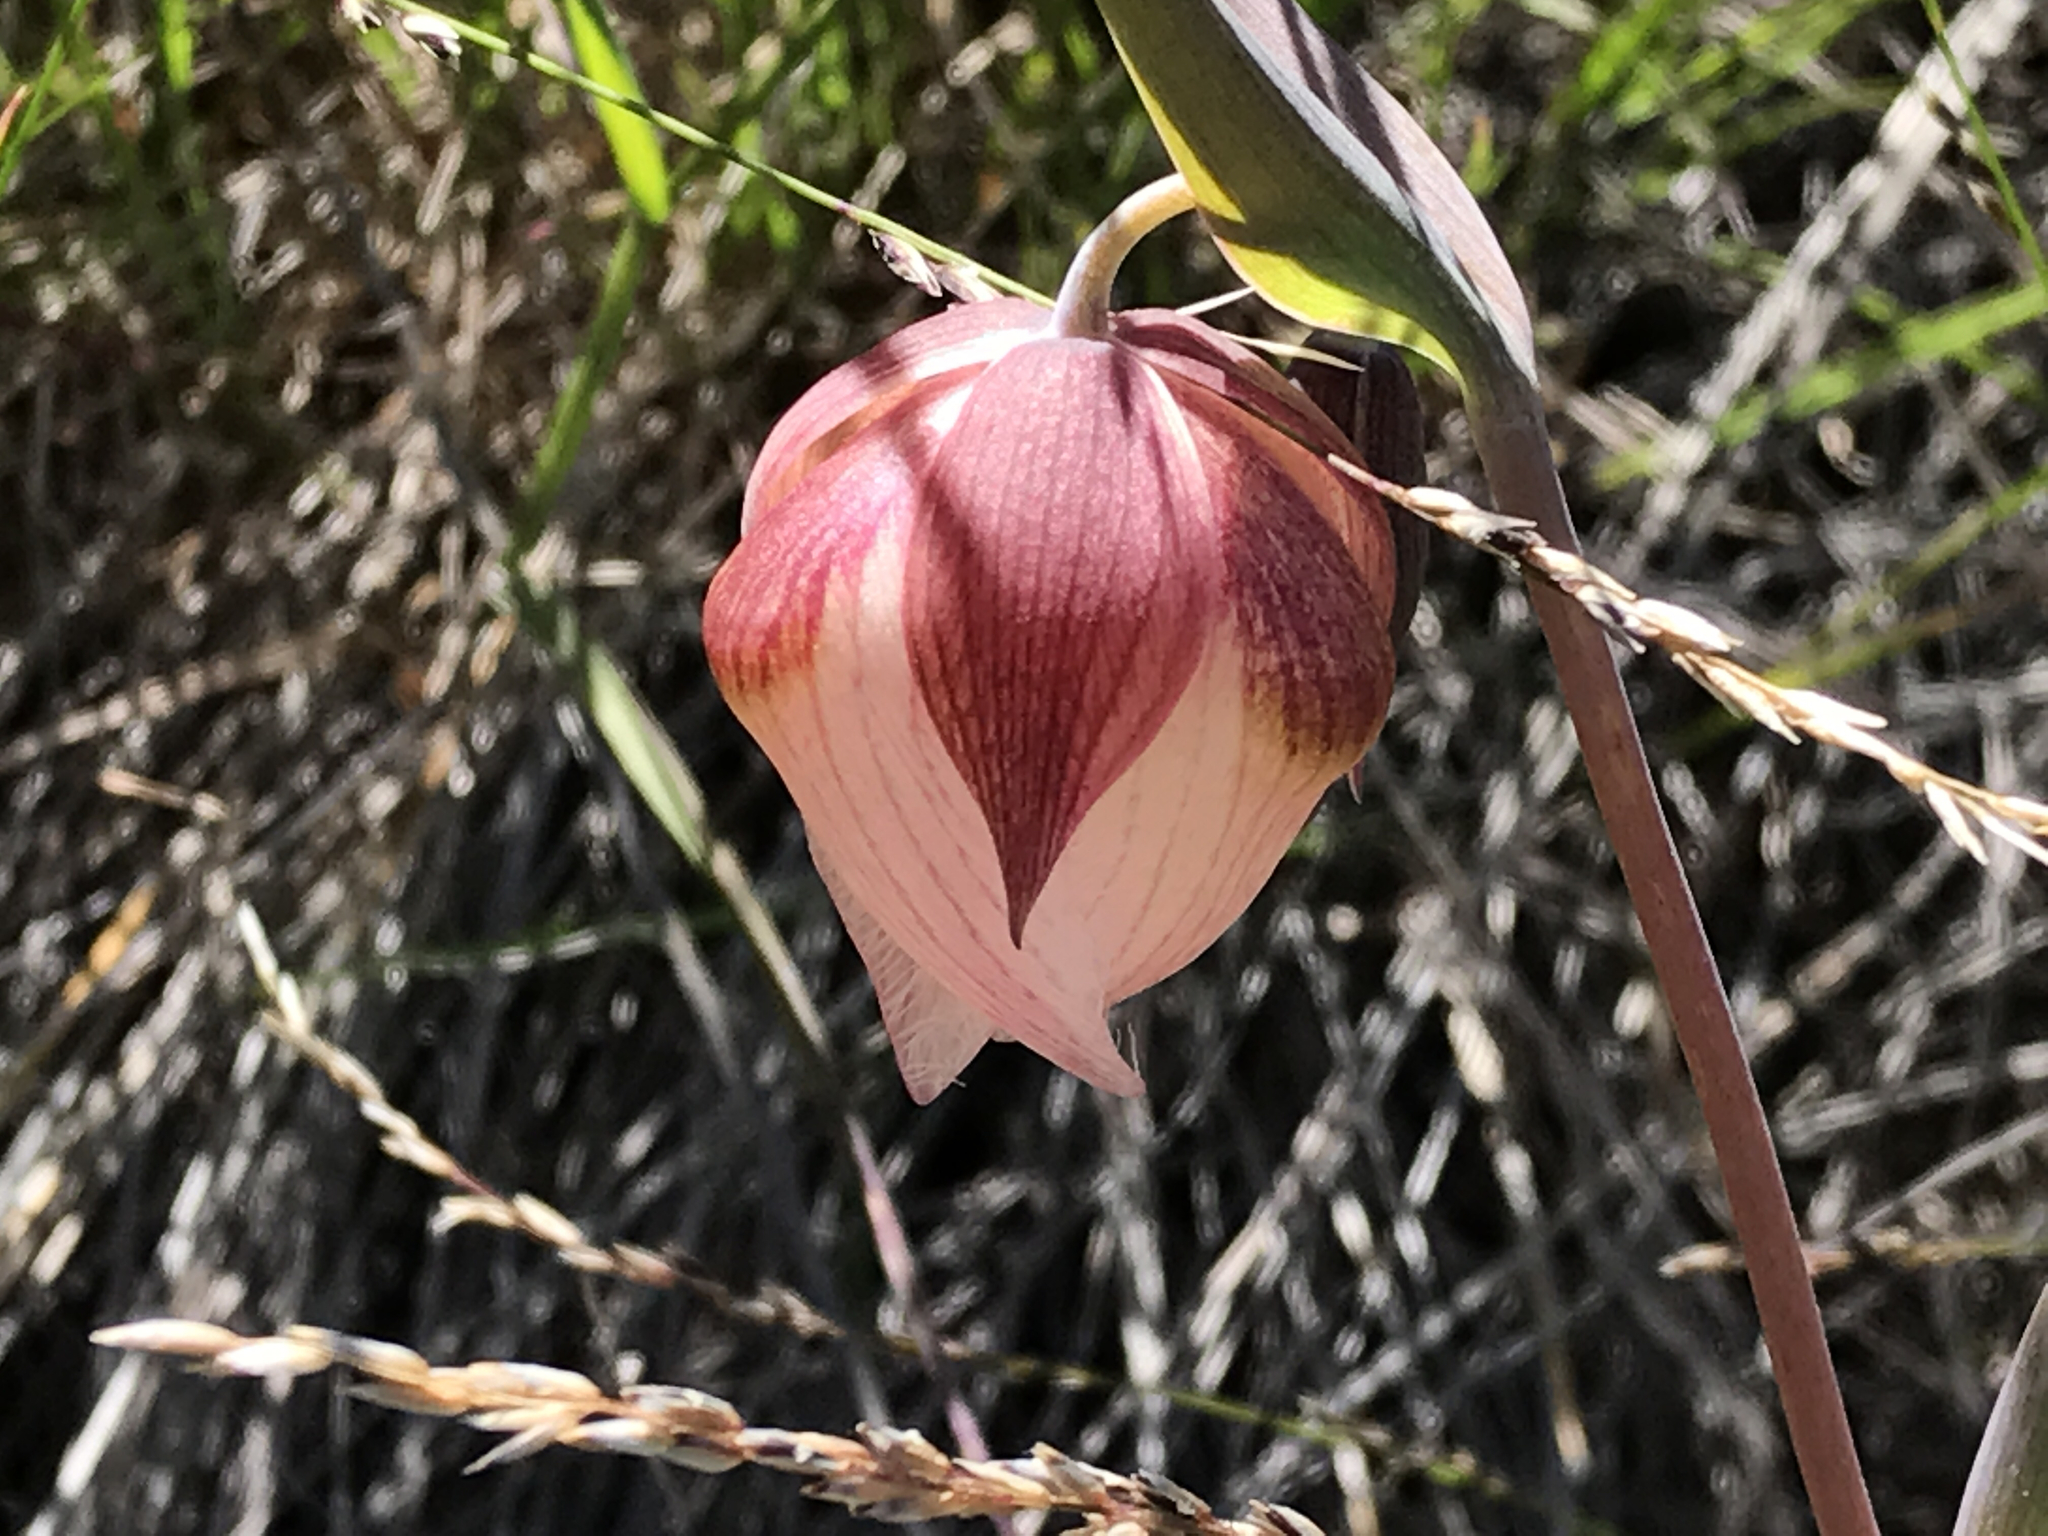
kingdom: Plantae
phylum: Tracheophyta
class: Liliopsida
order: Liliales
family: Liliaceae
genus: Calochortus
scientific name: Calochortus albus
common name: Fairy-lantern
